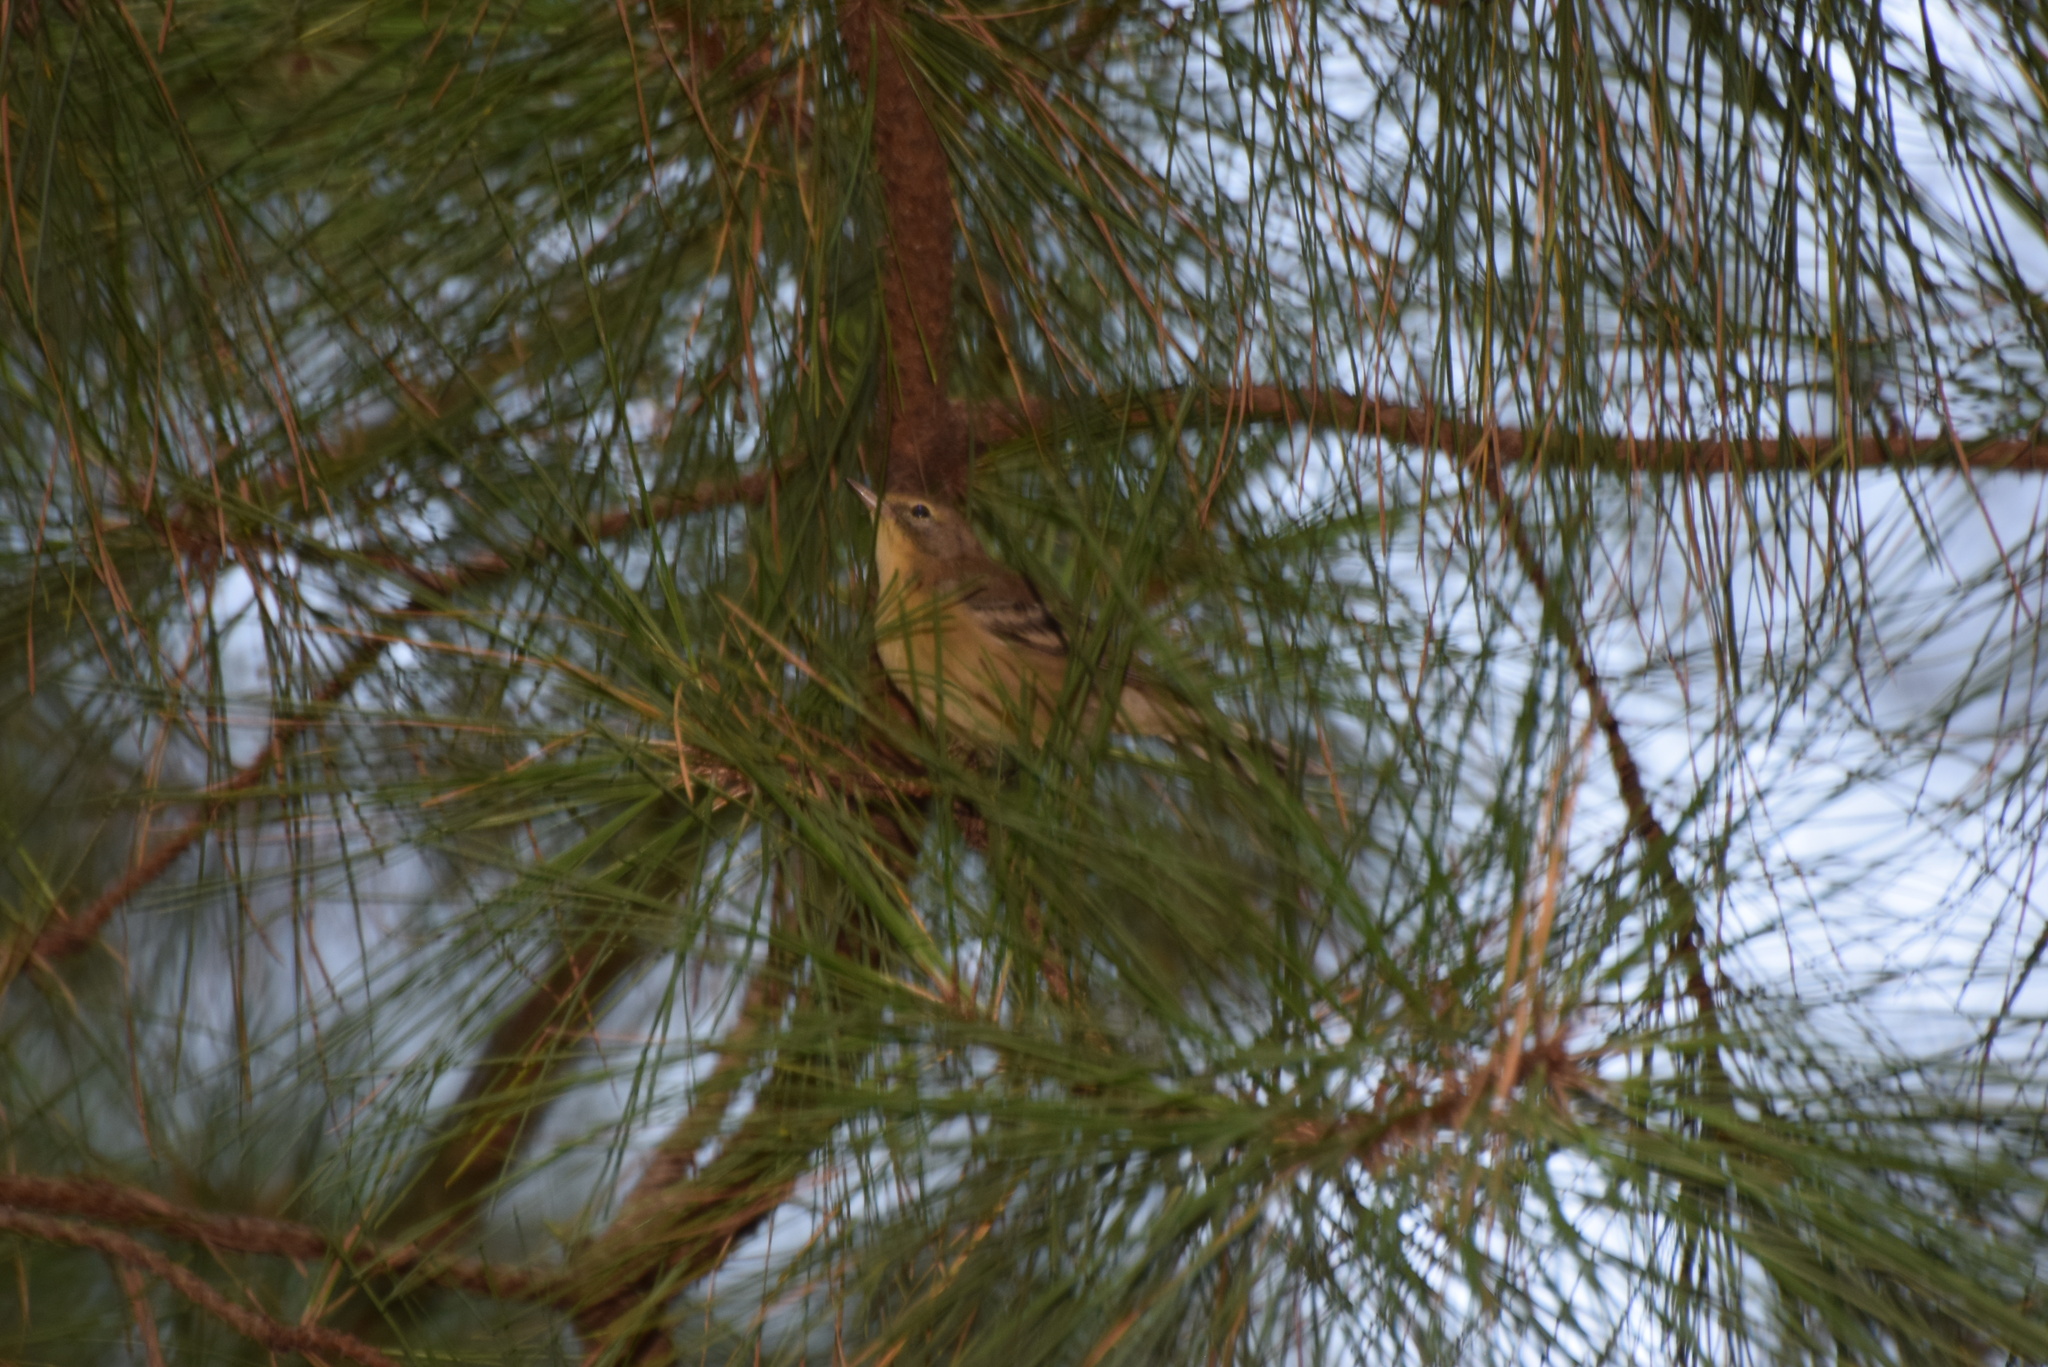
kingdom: Animalia
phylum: Chordata
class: Aves
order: Passeriformes
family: Parulidae
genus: Setophaga
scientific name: Setophaga pinus
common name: Pine warbler
